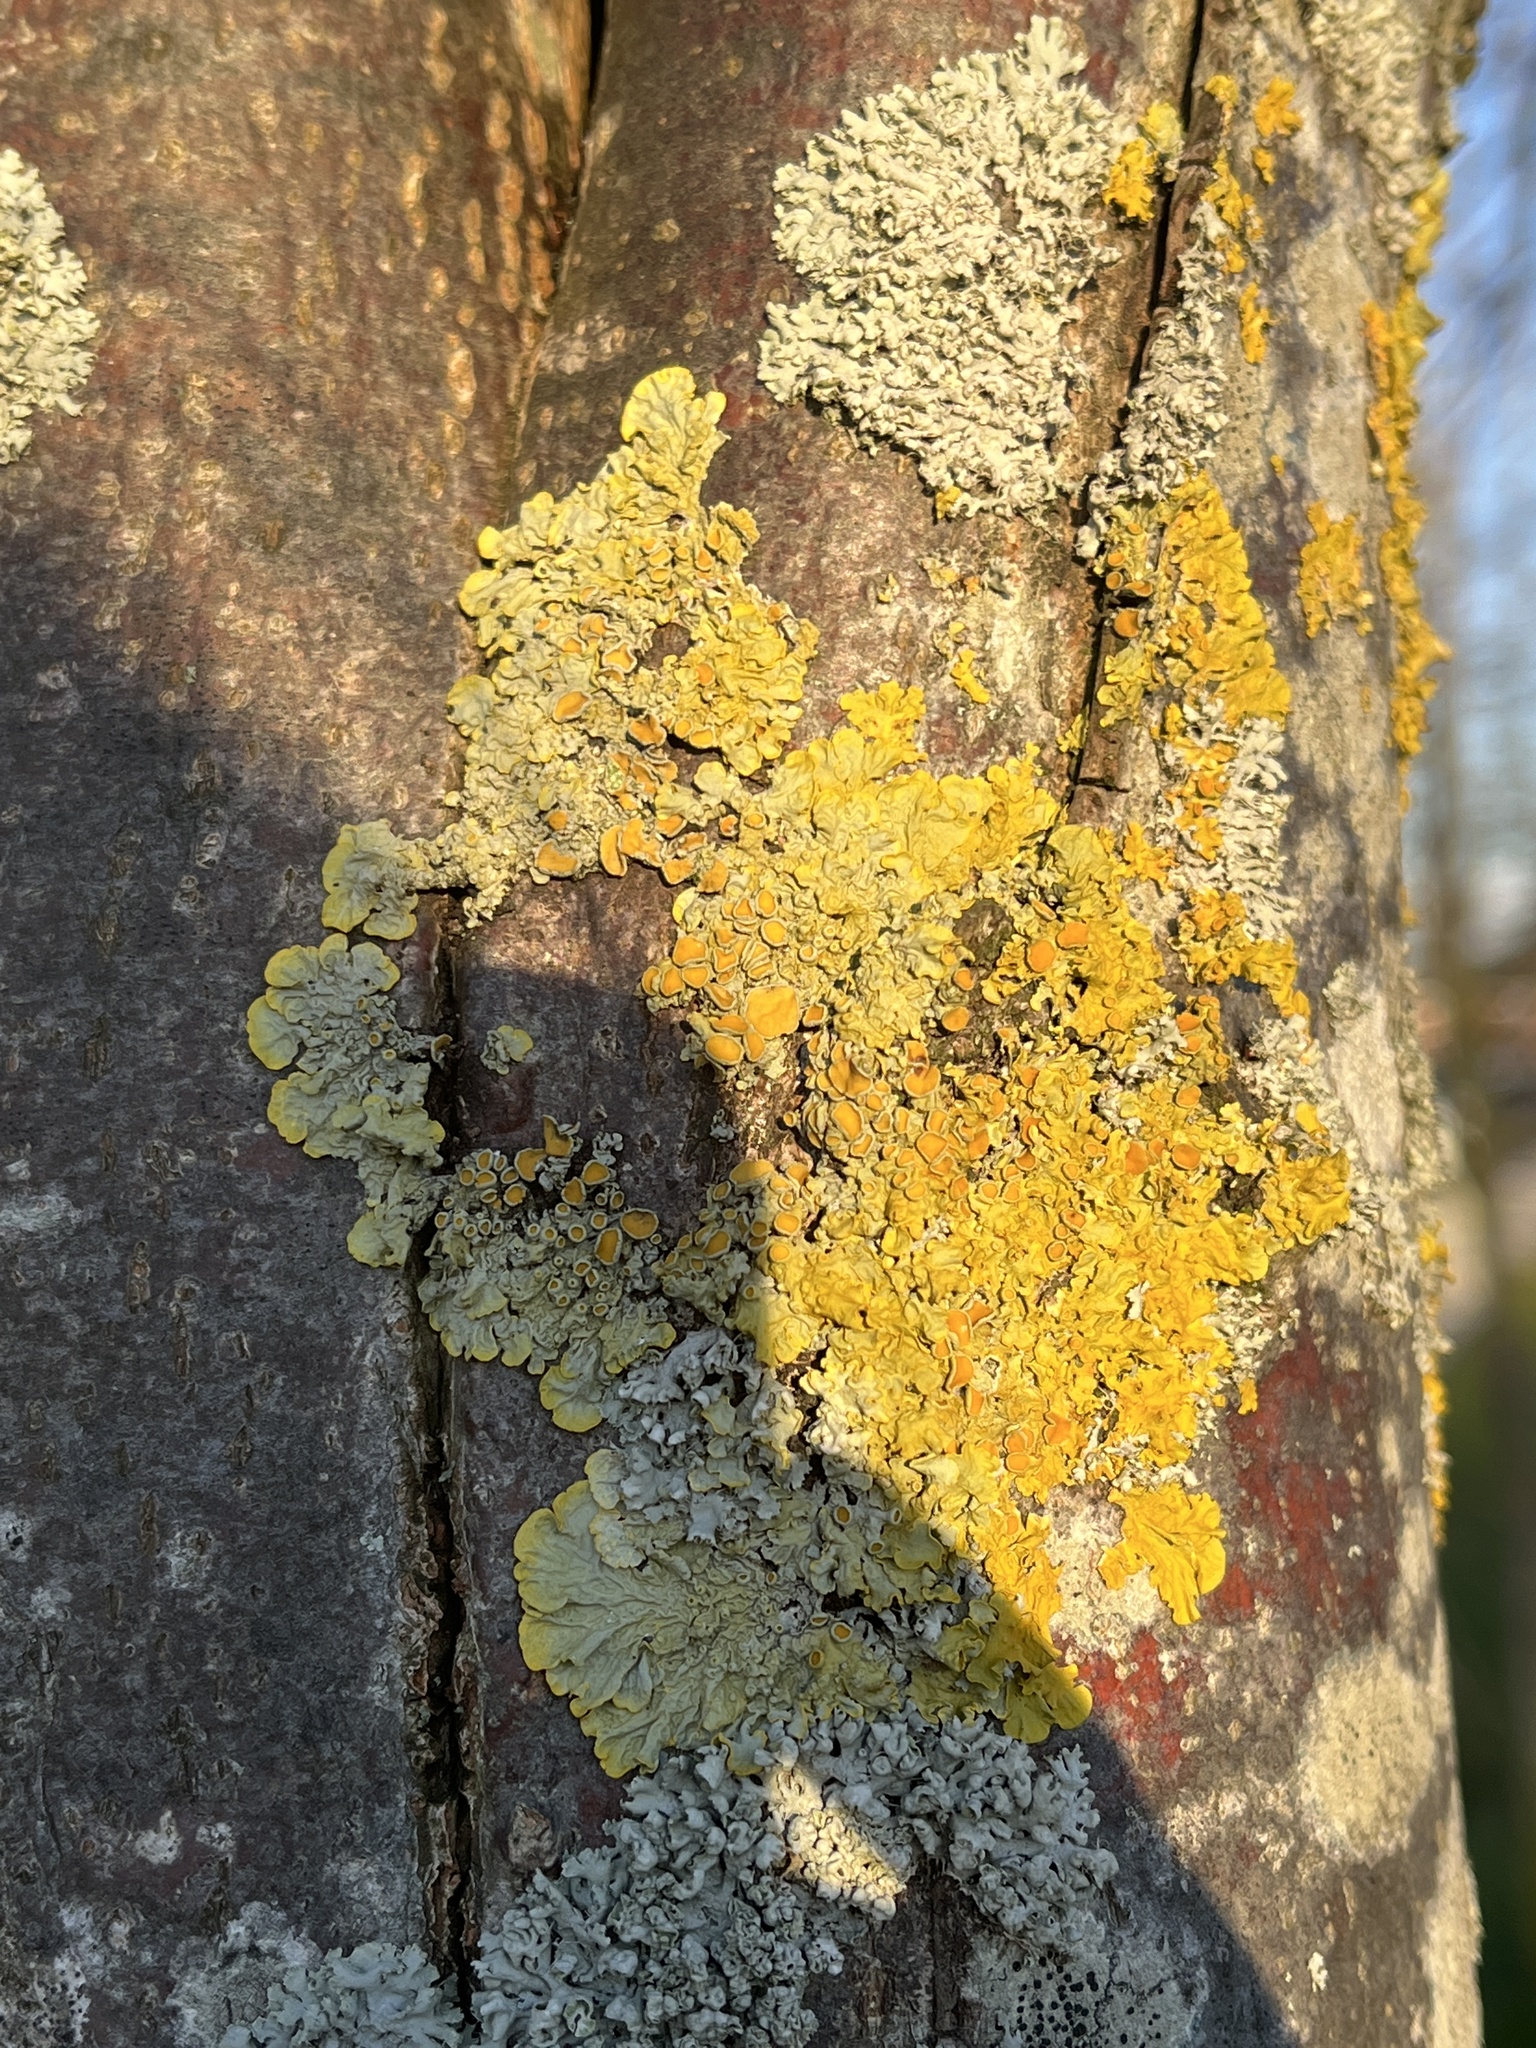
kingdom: Fungi
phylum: Ascomycota
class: Lecanoromycetes
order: Teloschistales
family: Teloschistaceae
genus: Xanthoria
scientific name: Xanthoria parietina
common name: Common orange lichen
